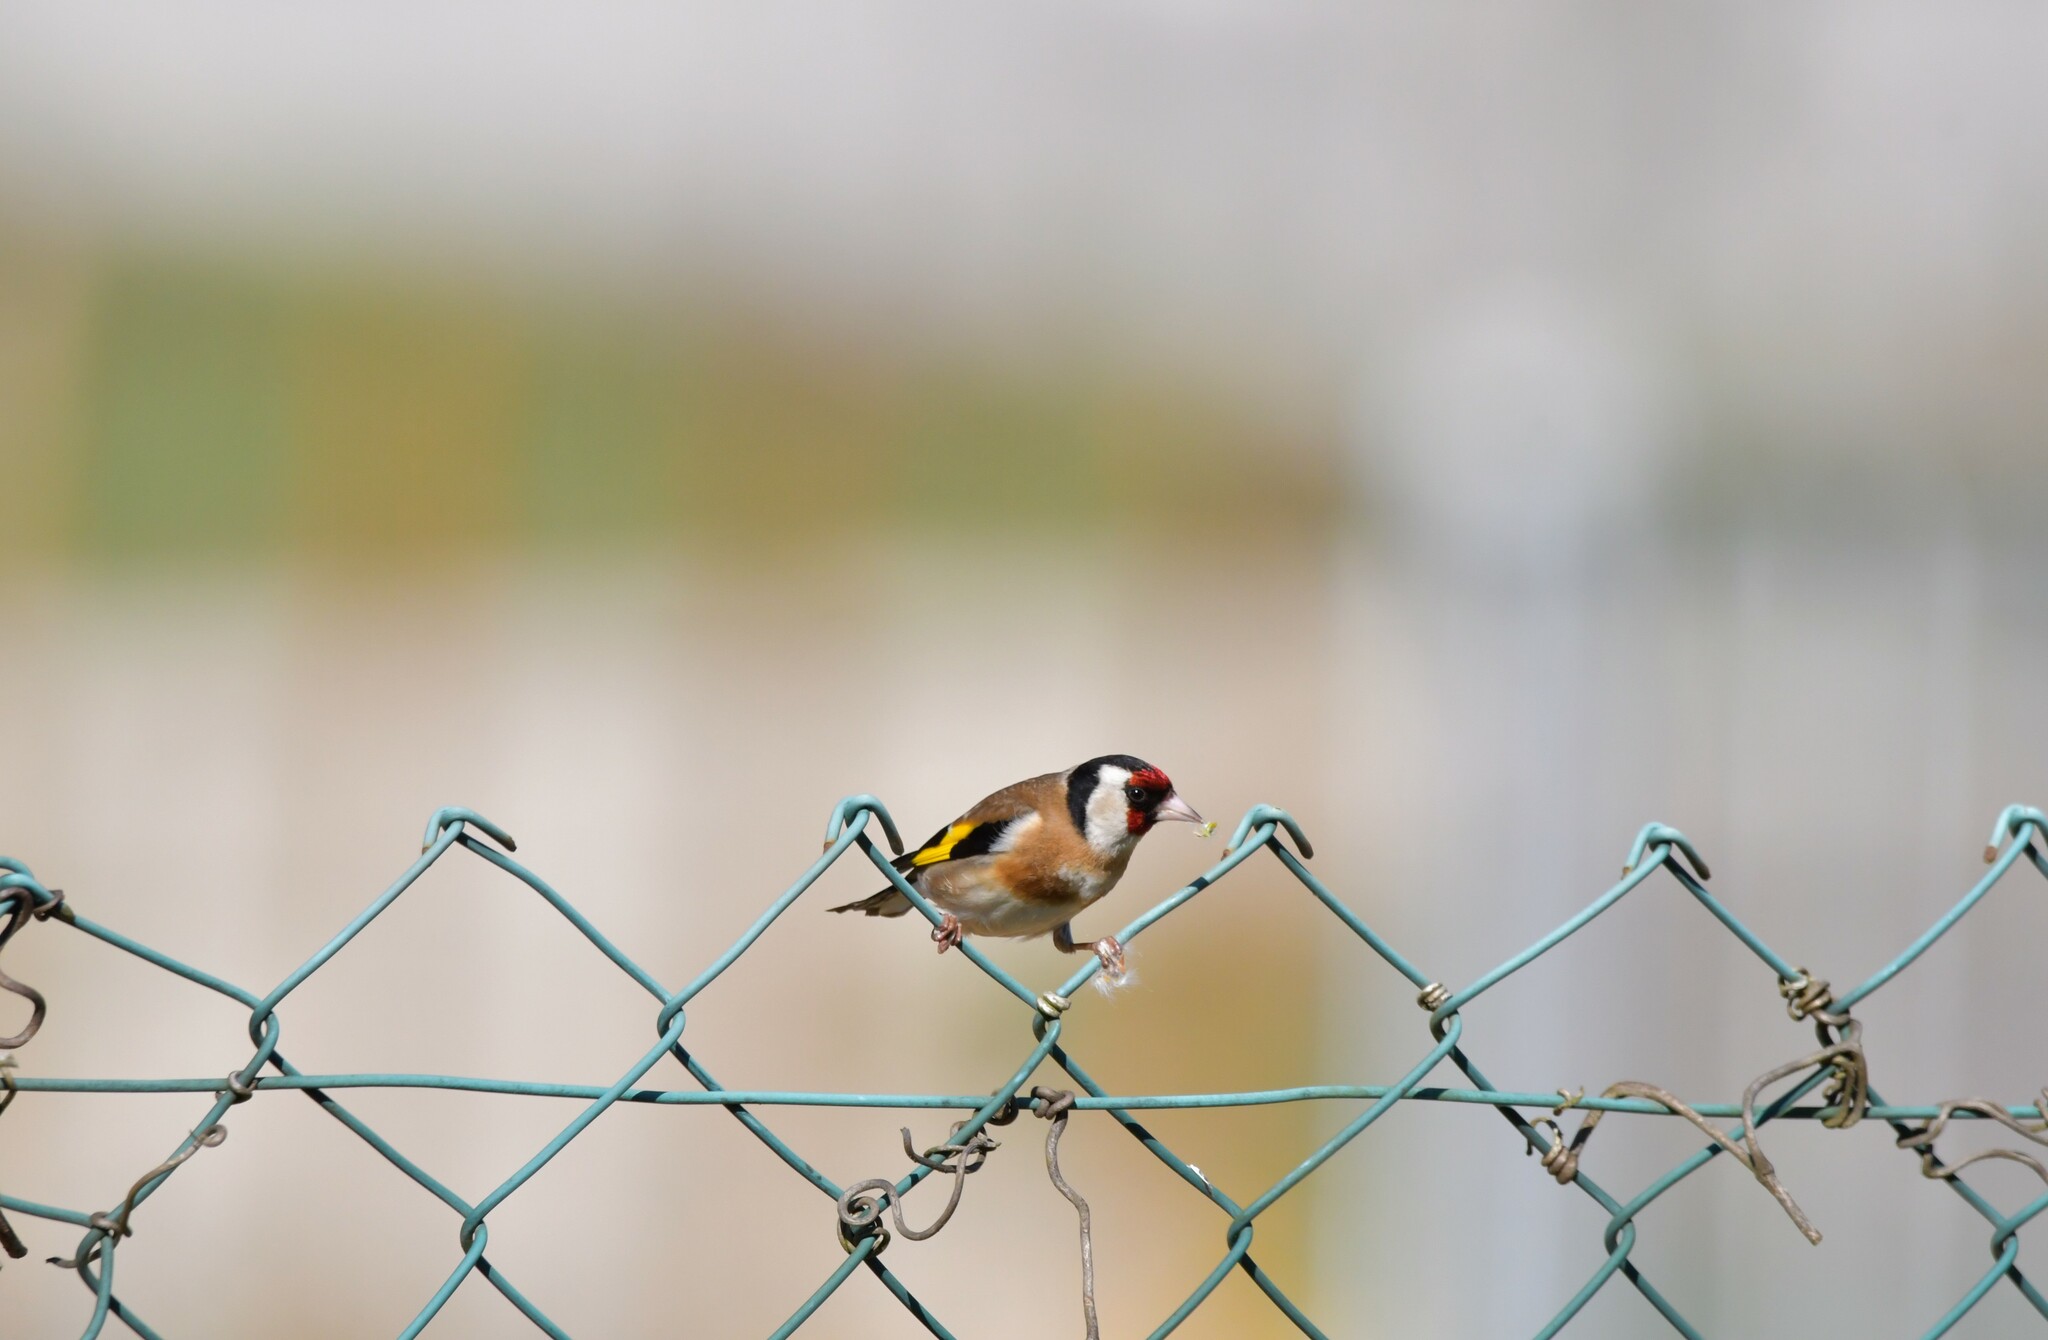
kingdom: Animalia
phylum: Chordata
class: Aves
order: Passeriformes
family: Fringillidae
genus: Carduelis
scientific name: Carduelis carduelis
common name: European goldfinch
